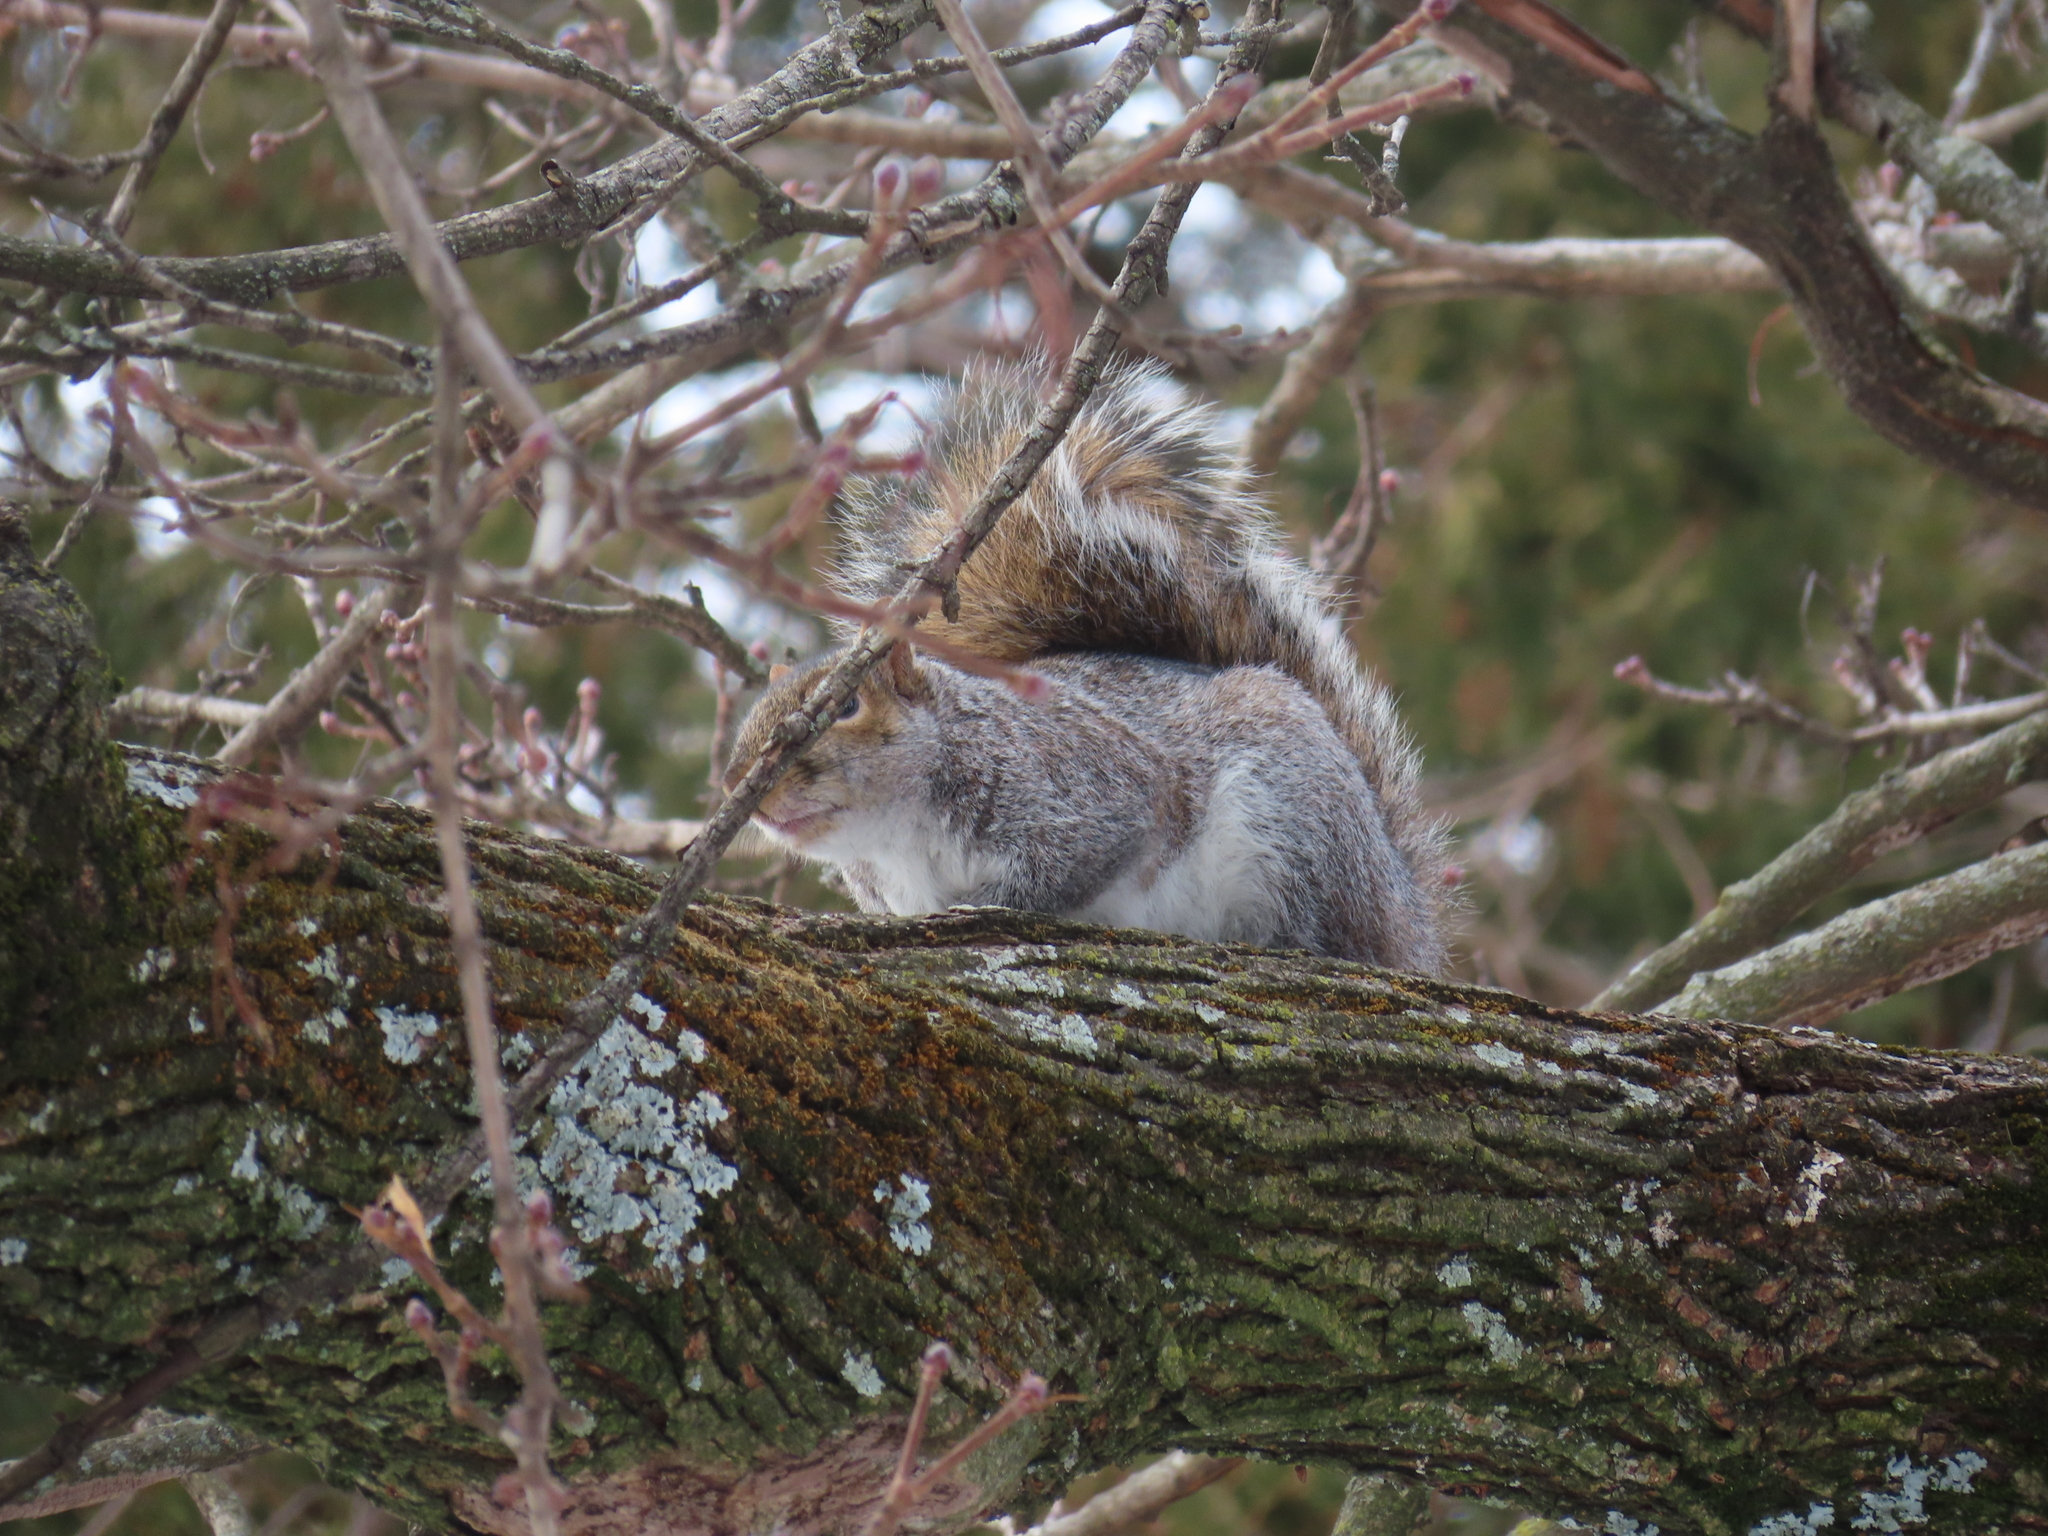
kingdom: Animalia
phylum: Chordata
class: Mammalia
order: Rodentia
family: Sciuridae
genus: Sciurus
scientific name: Sciurus carolinensis
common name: Eastern gray squirrel
